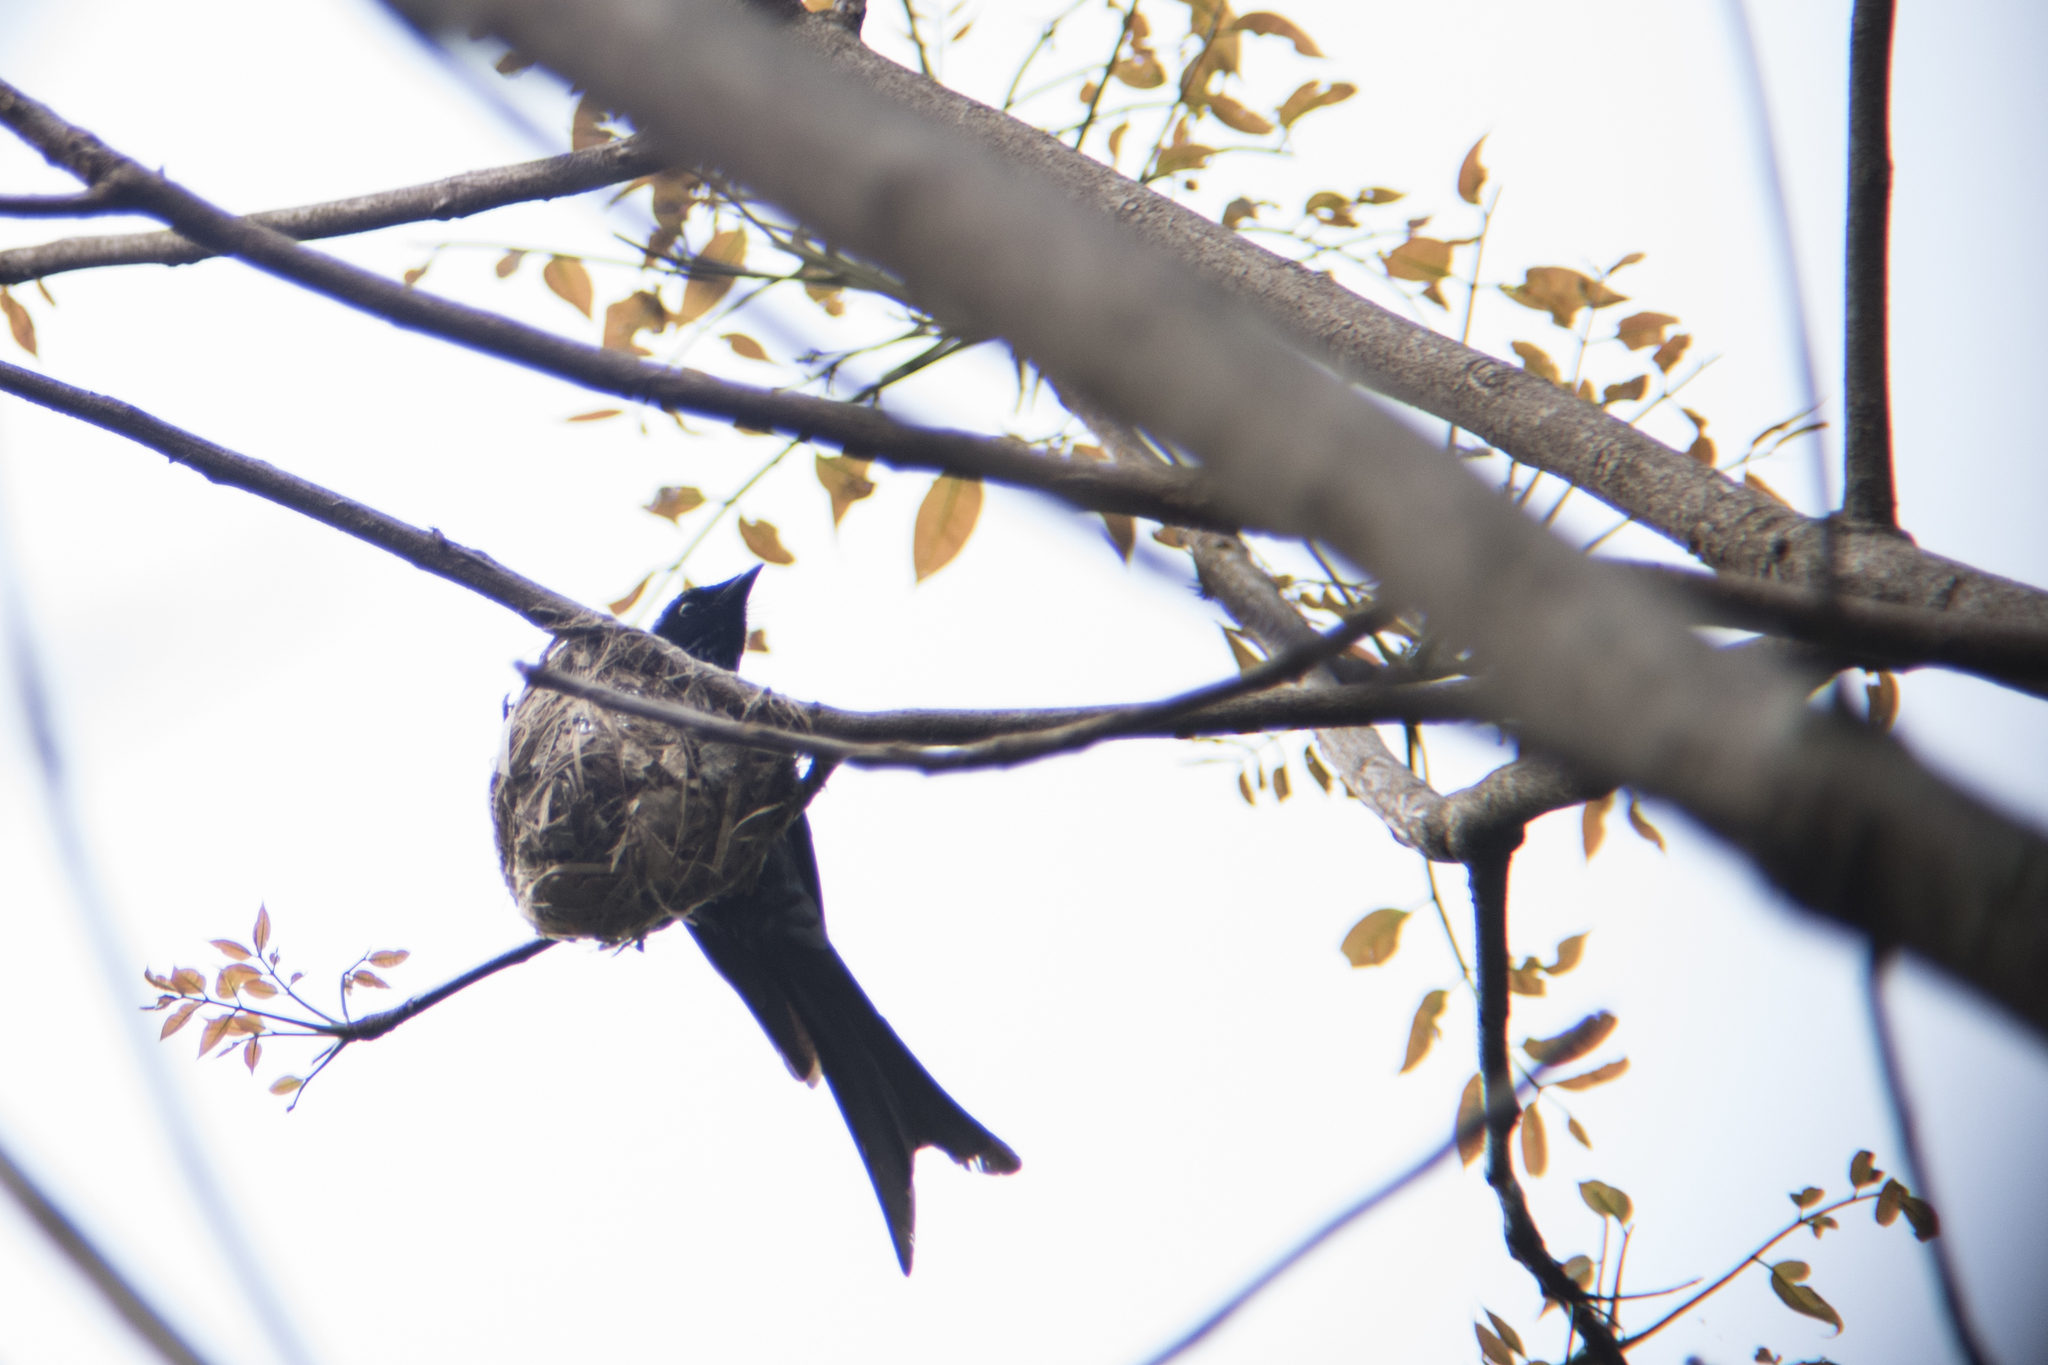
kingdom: Animalia
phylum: Chordata
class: Aves
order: Passeriformes
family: Dicruridae
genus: Dicrurus
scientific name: Dicrurus aeneus
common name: Bronzed drongo
